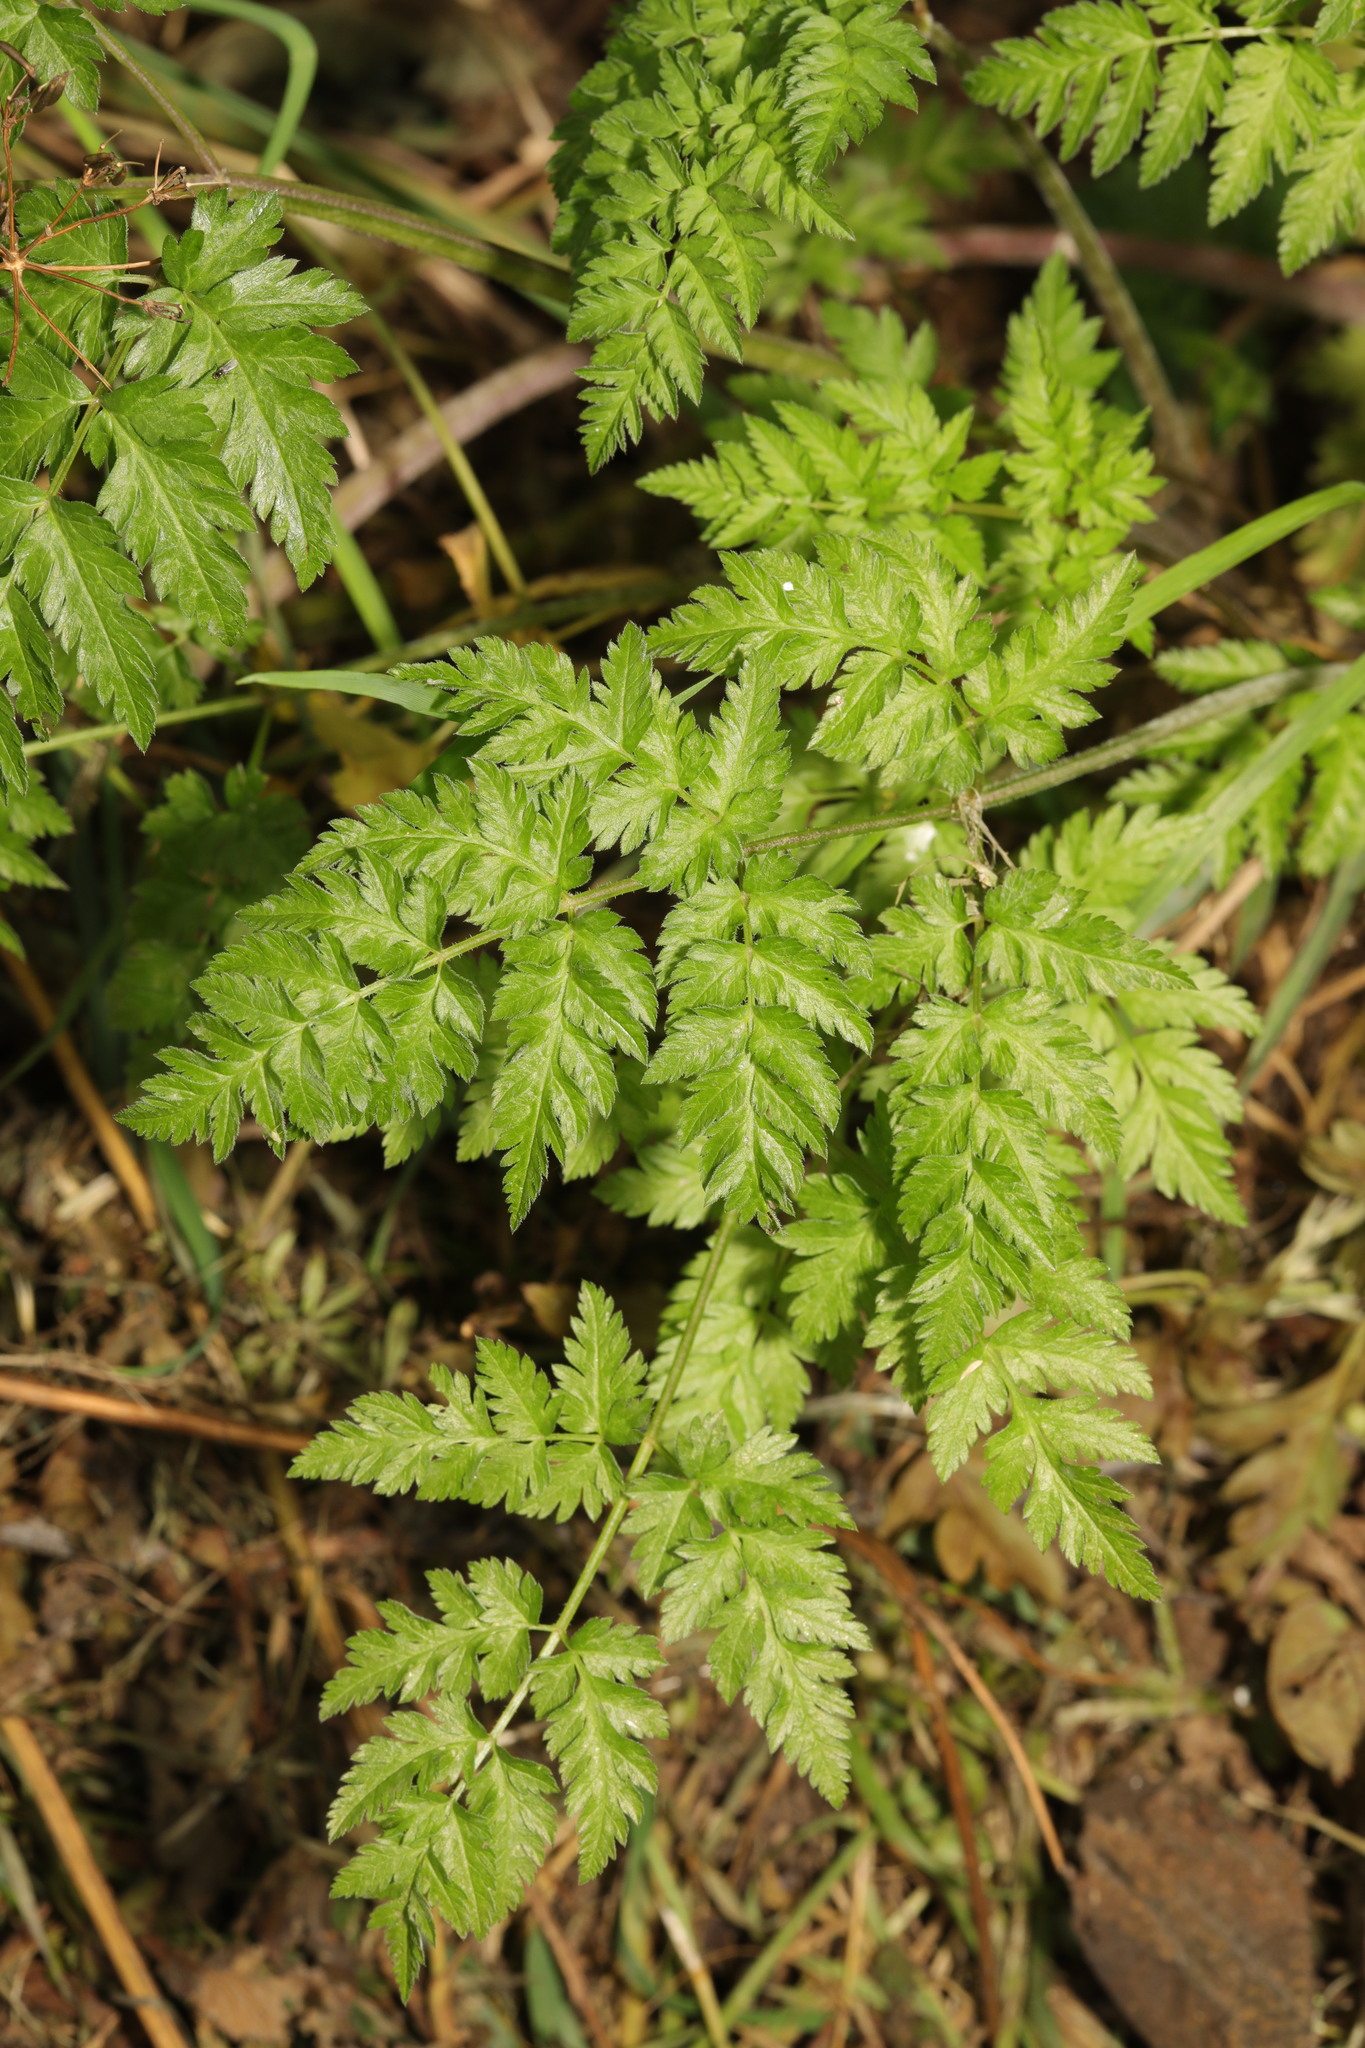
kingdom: Plantae
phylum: Tracheophyta
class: Magnoliopsida
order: Apiales
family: Apiaceae
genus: Anthriscus
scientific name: Anthriscus sylvestris
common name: Cow parsley
